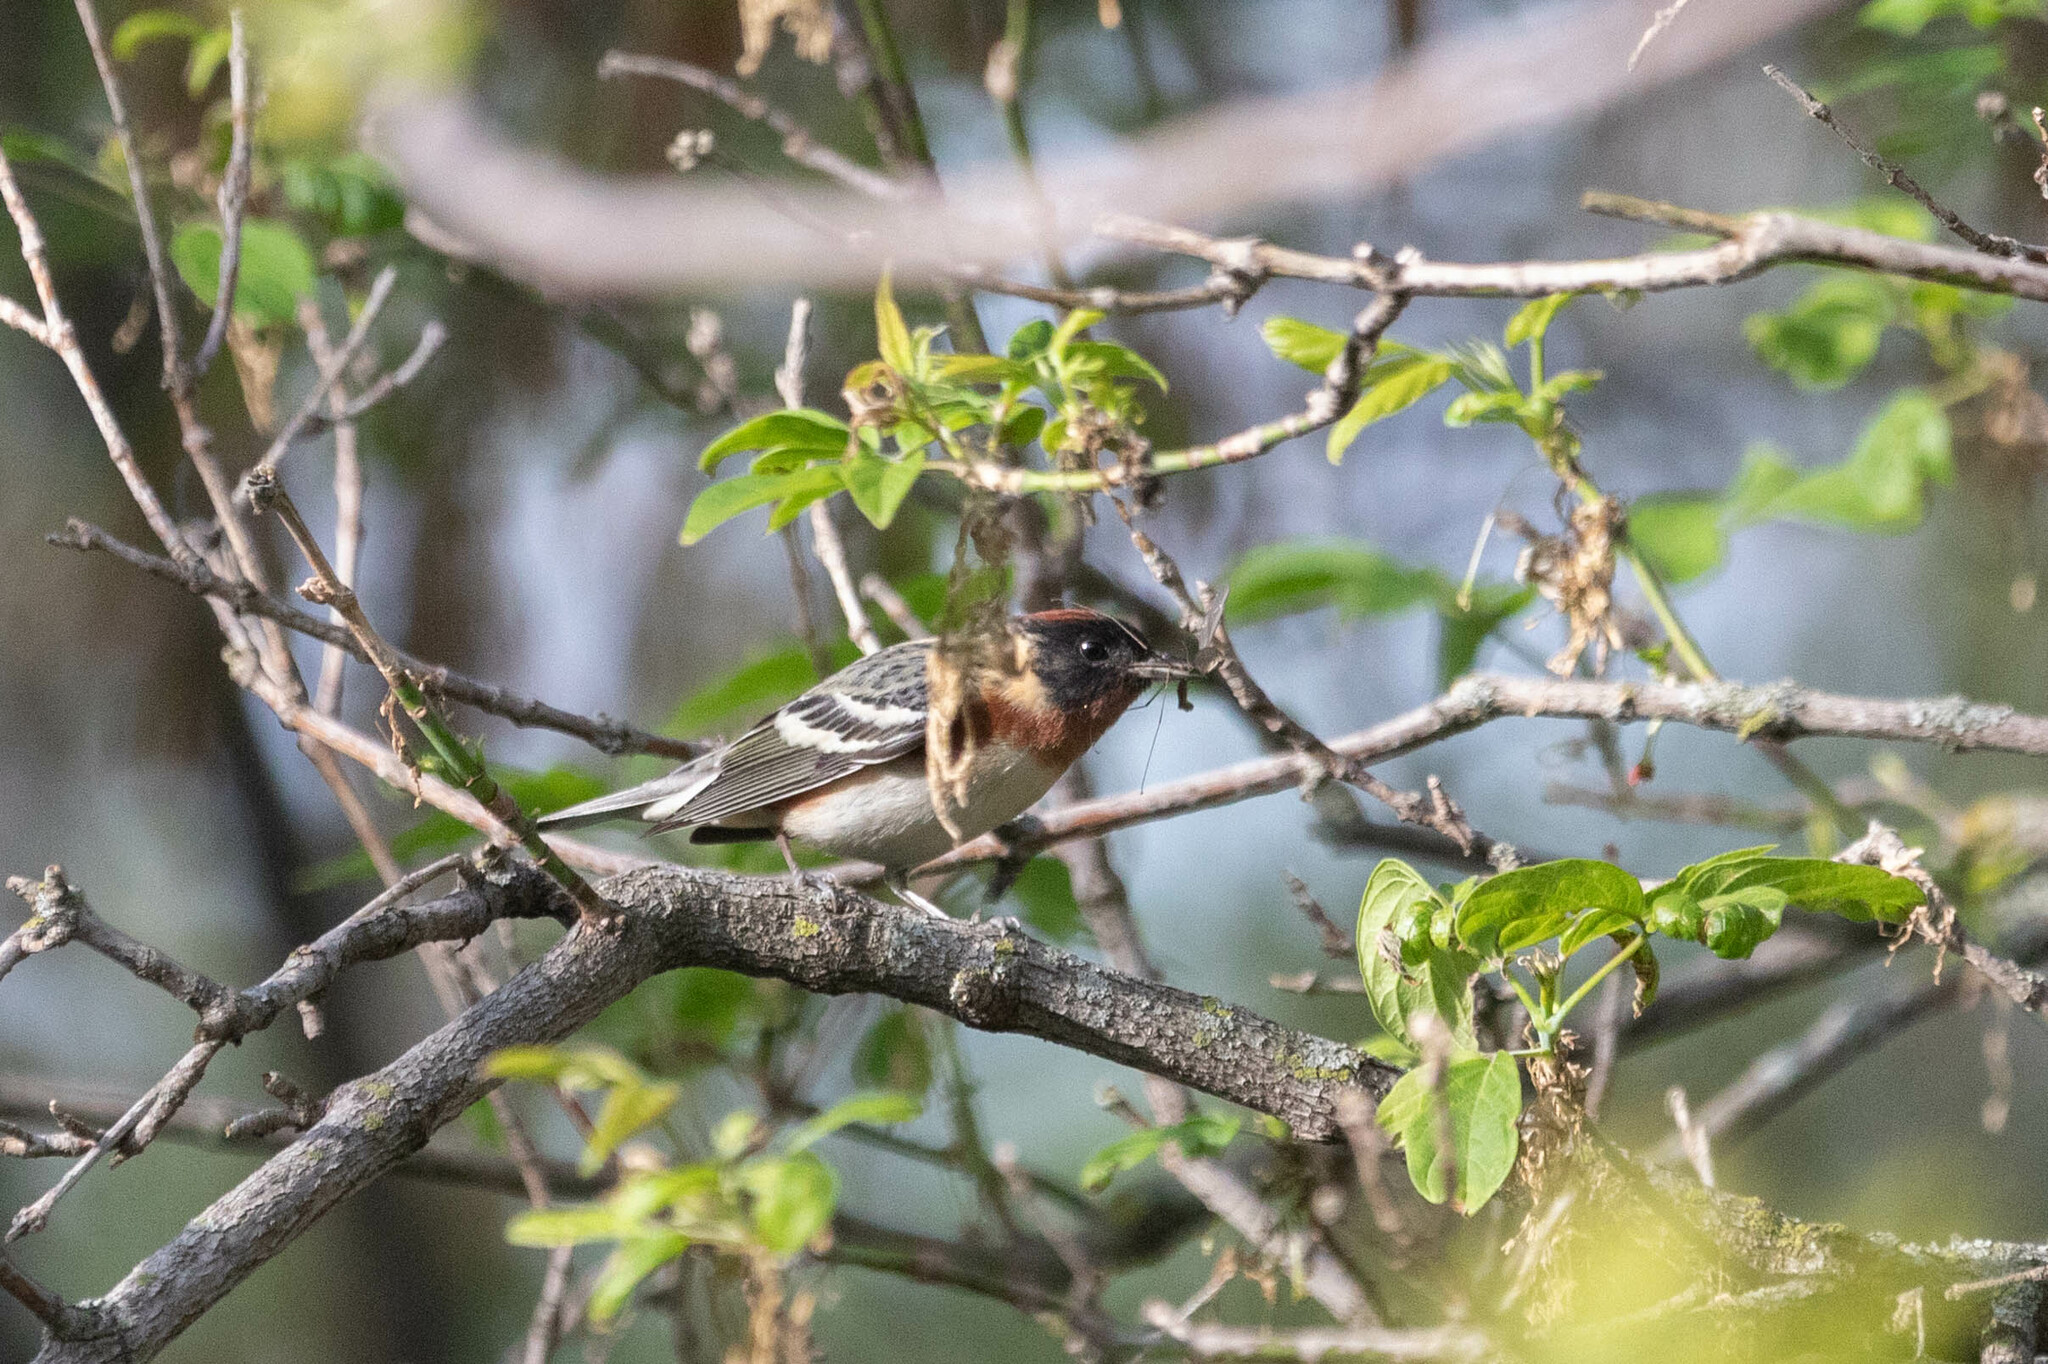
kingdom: Animalia
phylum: Chordata
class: Aves
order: Passeriformes
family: Parulidae
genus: Setophaga
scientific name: Setophaga castanea
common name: Bay-breasted warbler
